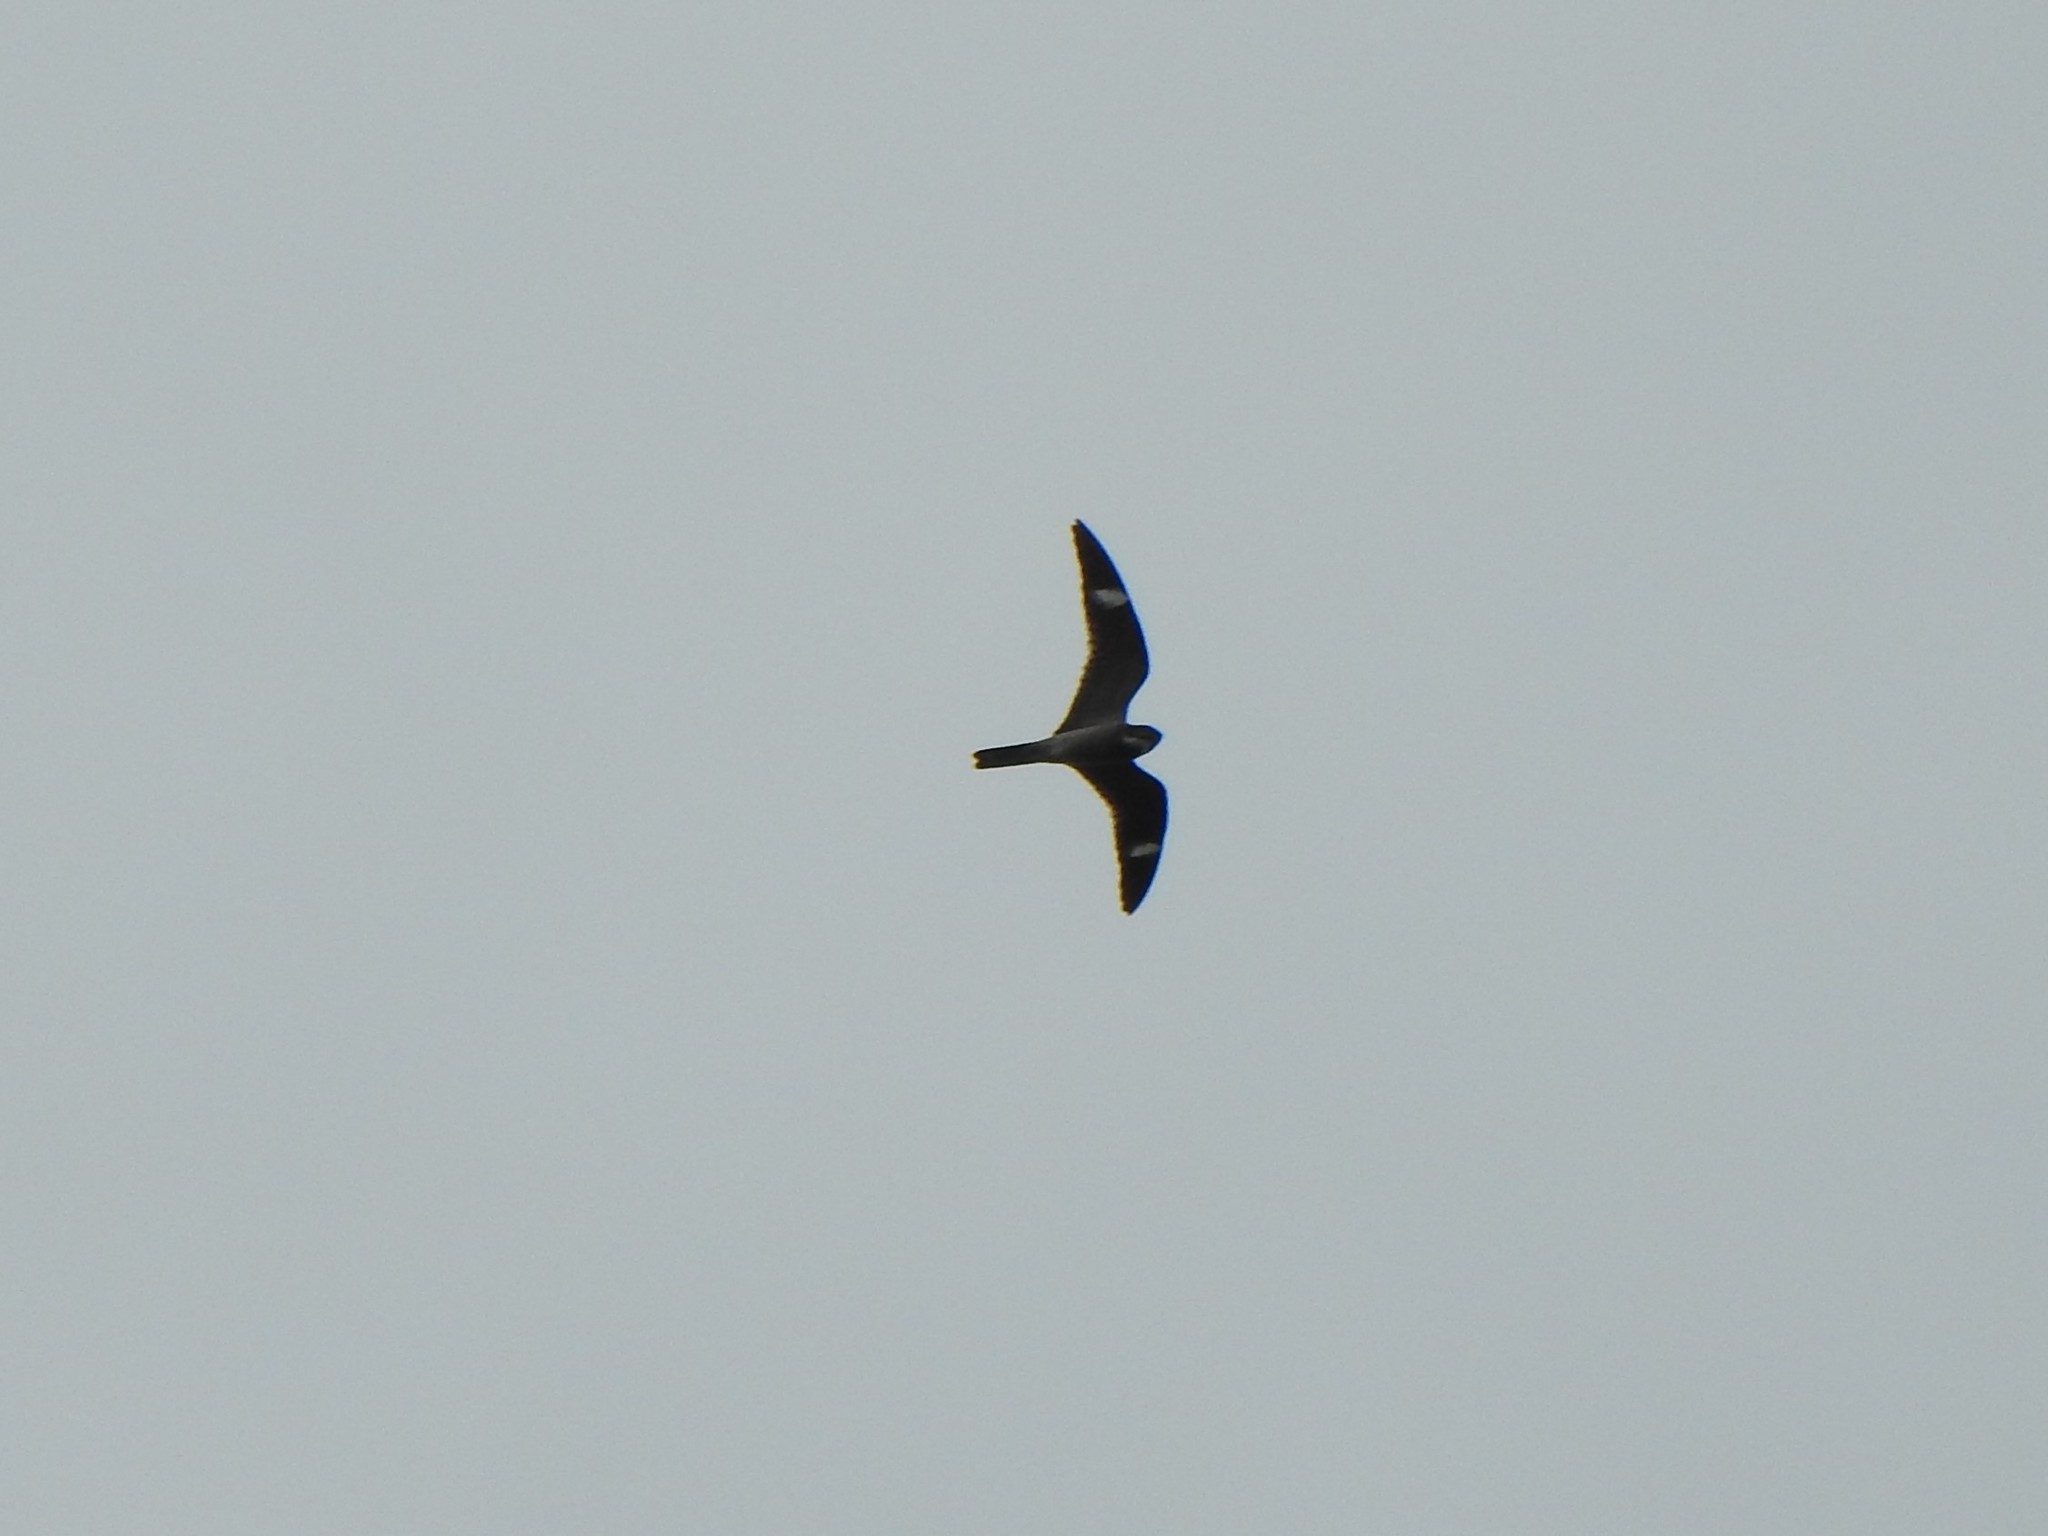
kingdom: Animalia
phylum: Chordata
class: Aves
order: Caprimulgiformes
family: Caprimulgidae
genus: Chordeiles
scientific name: Chordeiles minor
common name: Common nighthawk
